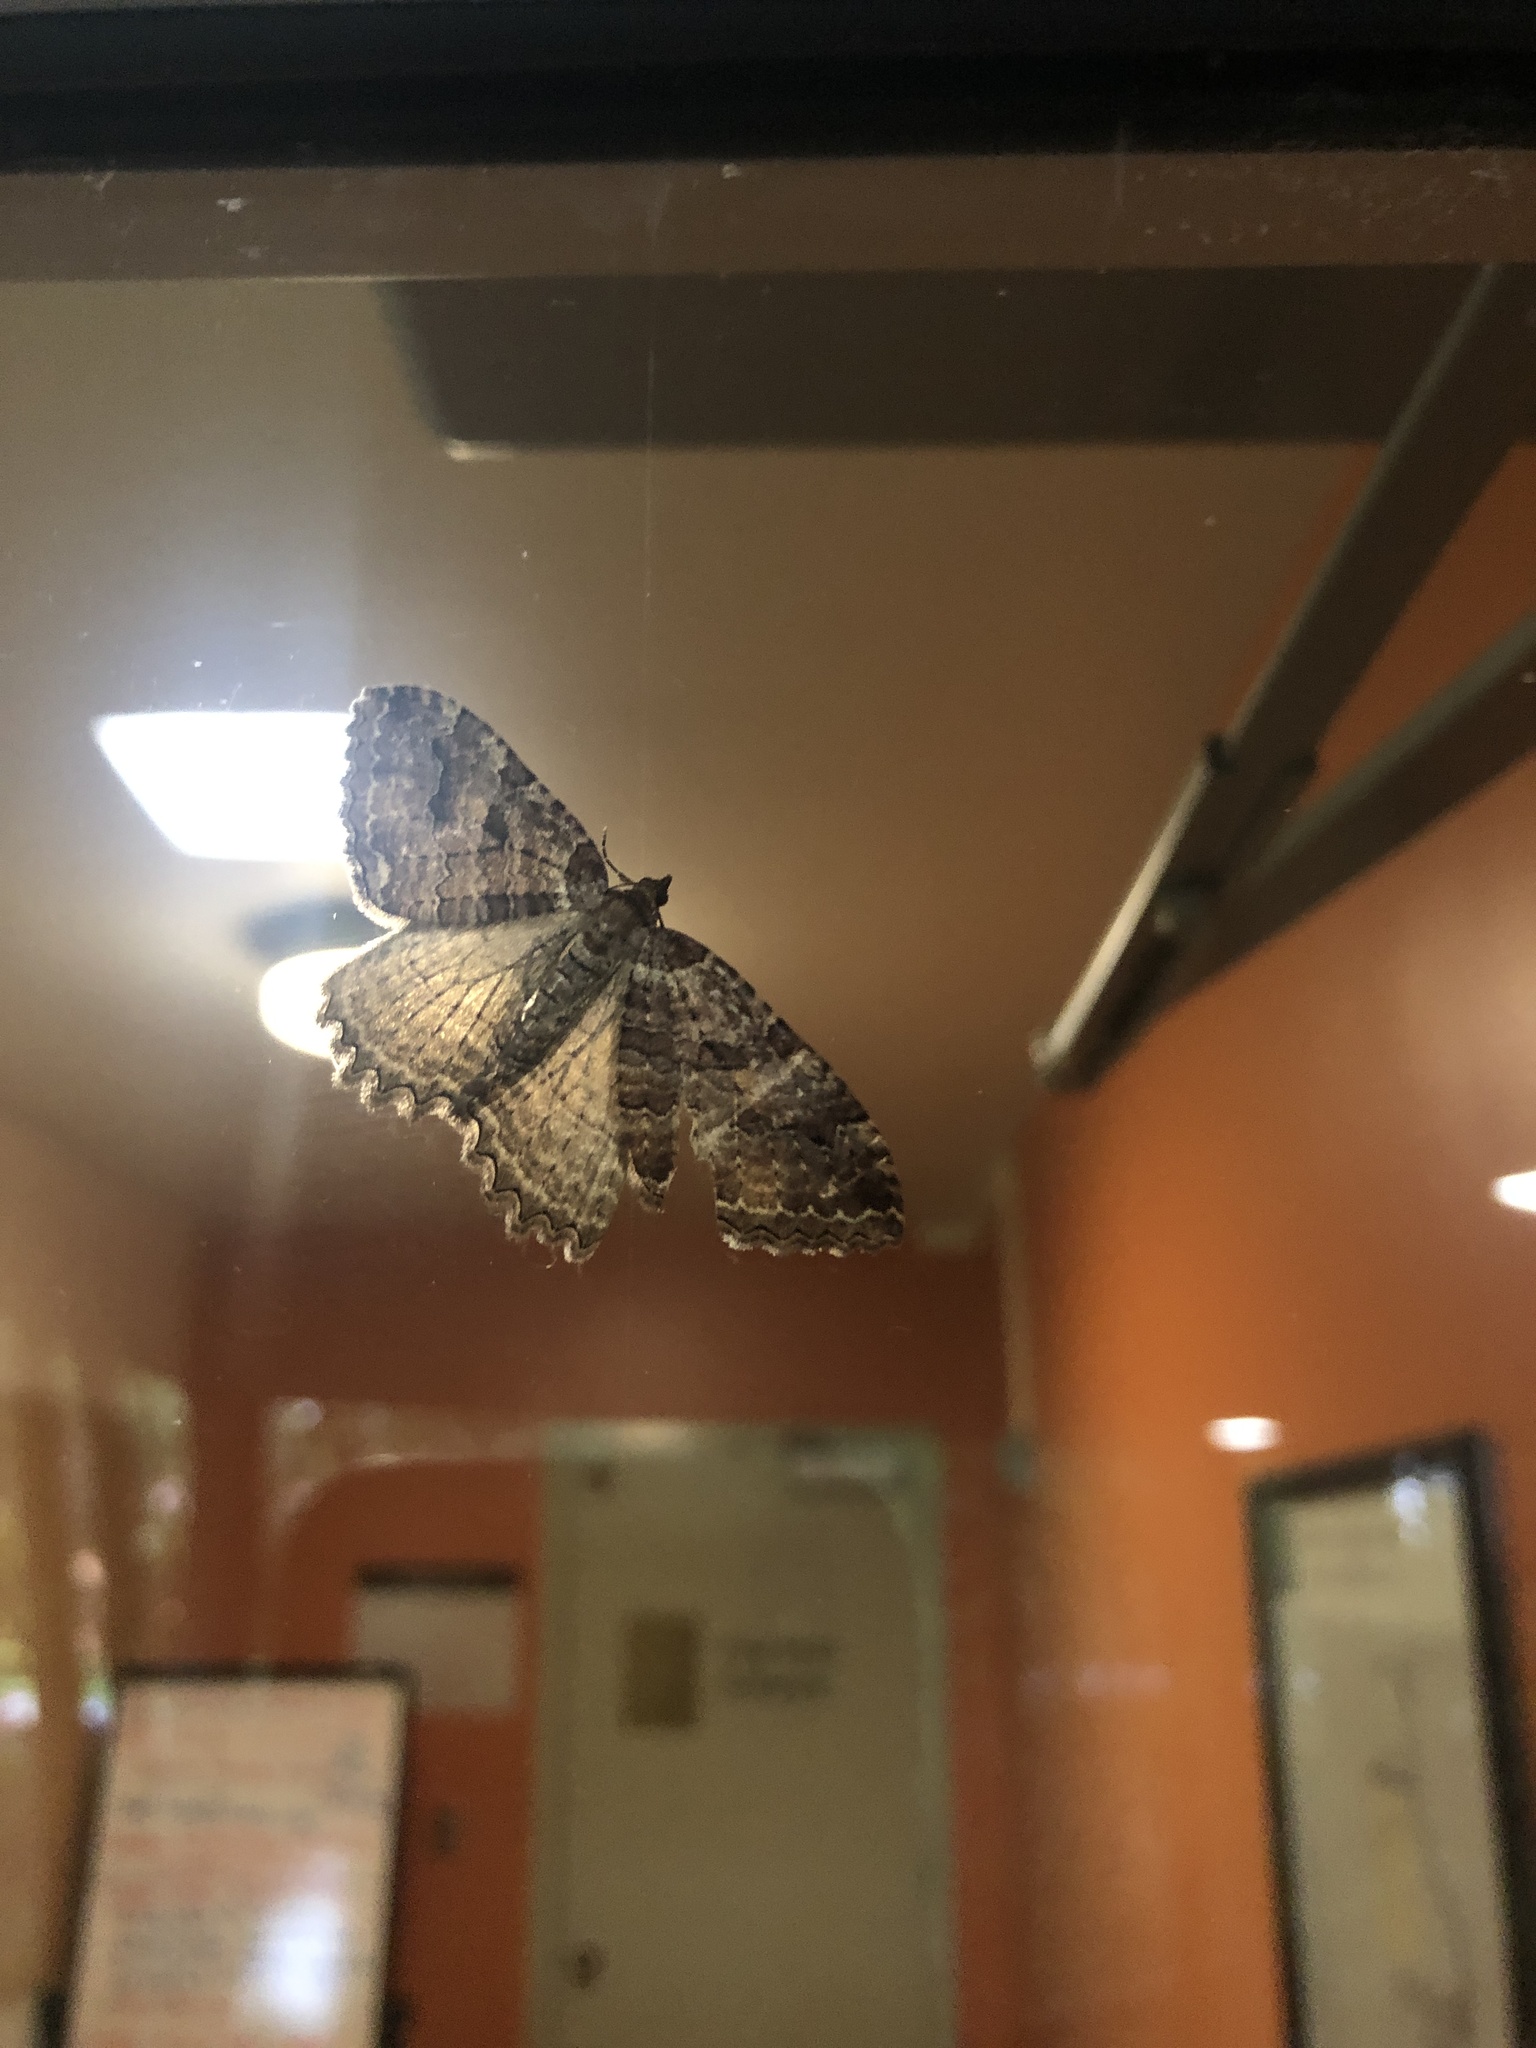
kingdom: Animalia
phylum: Arthropoda
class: Insecta
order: Lepidoptera
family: Geometridae
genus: Triphosa
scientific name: Triphosa haesitata
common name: Tissue moth
